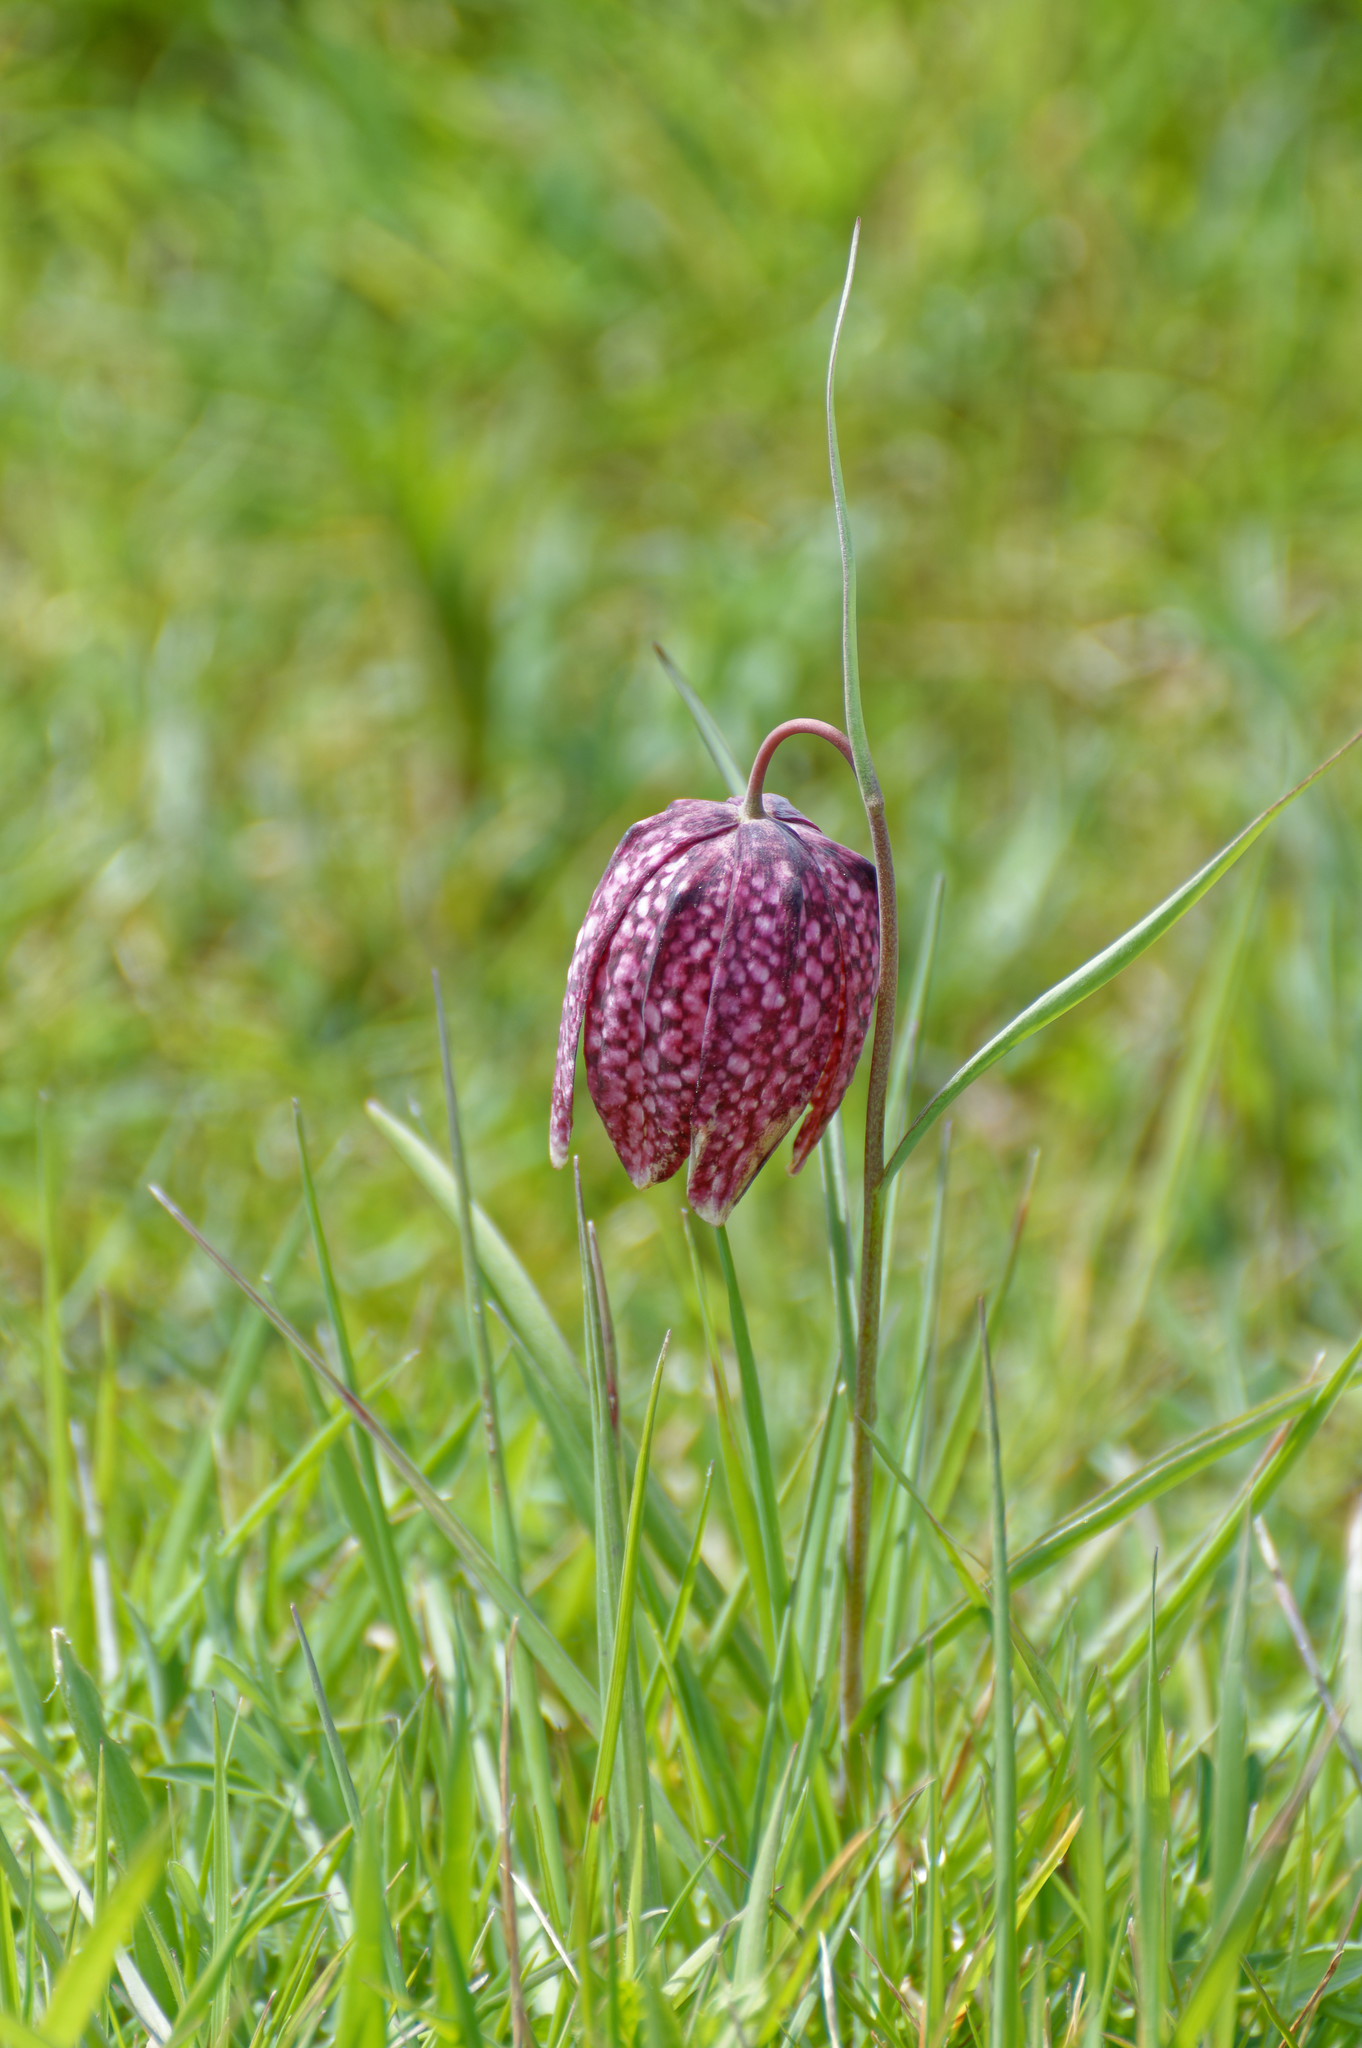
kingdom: Plantae
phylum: Tracheophyta
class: Liliopsida
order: Liliales
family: Liliaceae
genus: Fritillaria
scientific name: Fritillaria meleagris
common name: Fritillary
